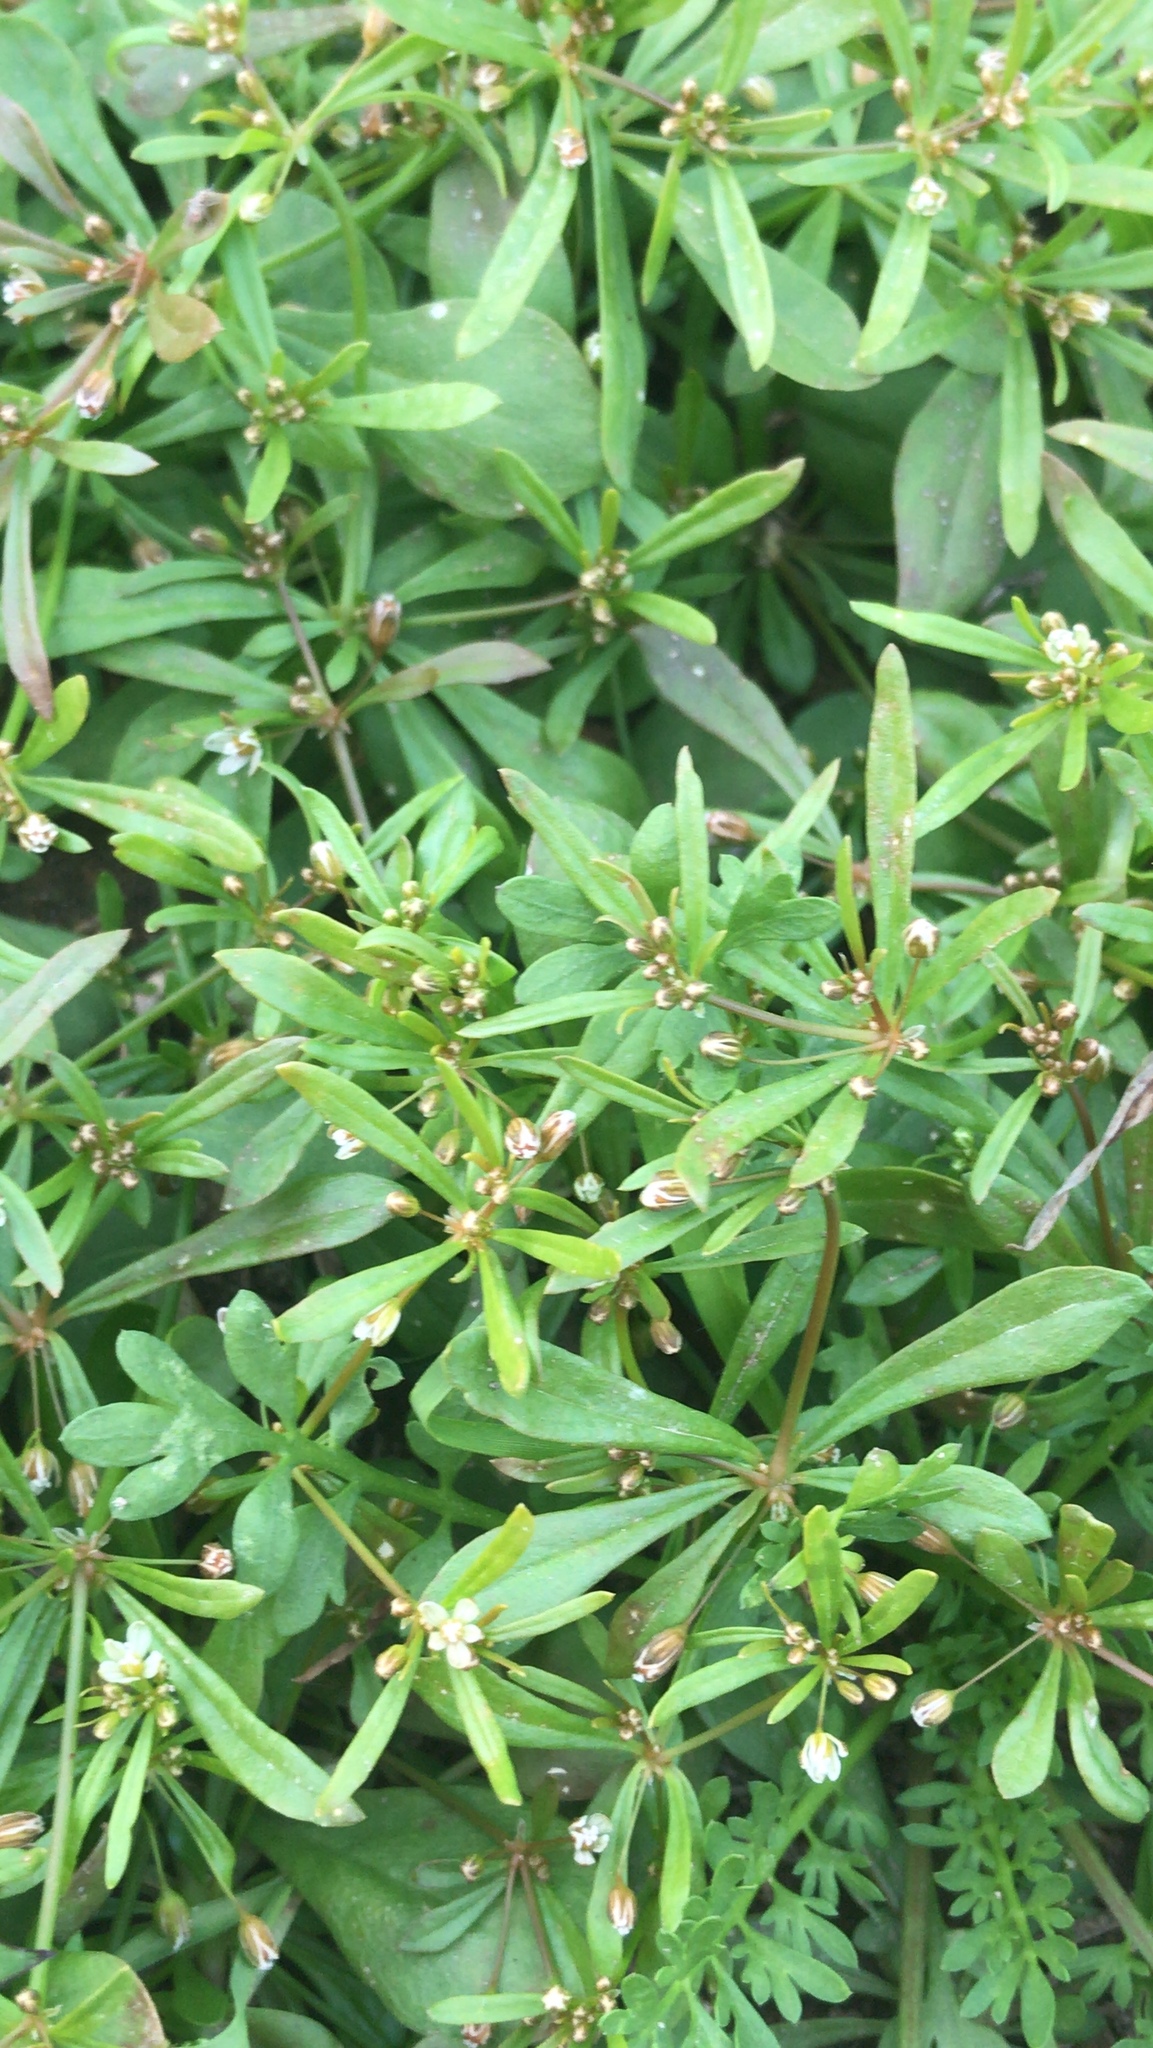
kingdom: Plantae
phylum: Tracheophyta
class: Magnoliopsida
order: Caryophyllales
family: Molluginaceae
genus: Mollugo
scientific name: Mollugo verticillata
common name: Green carpetweed
